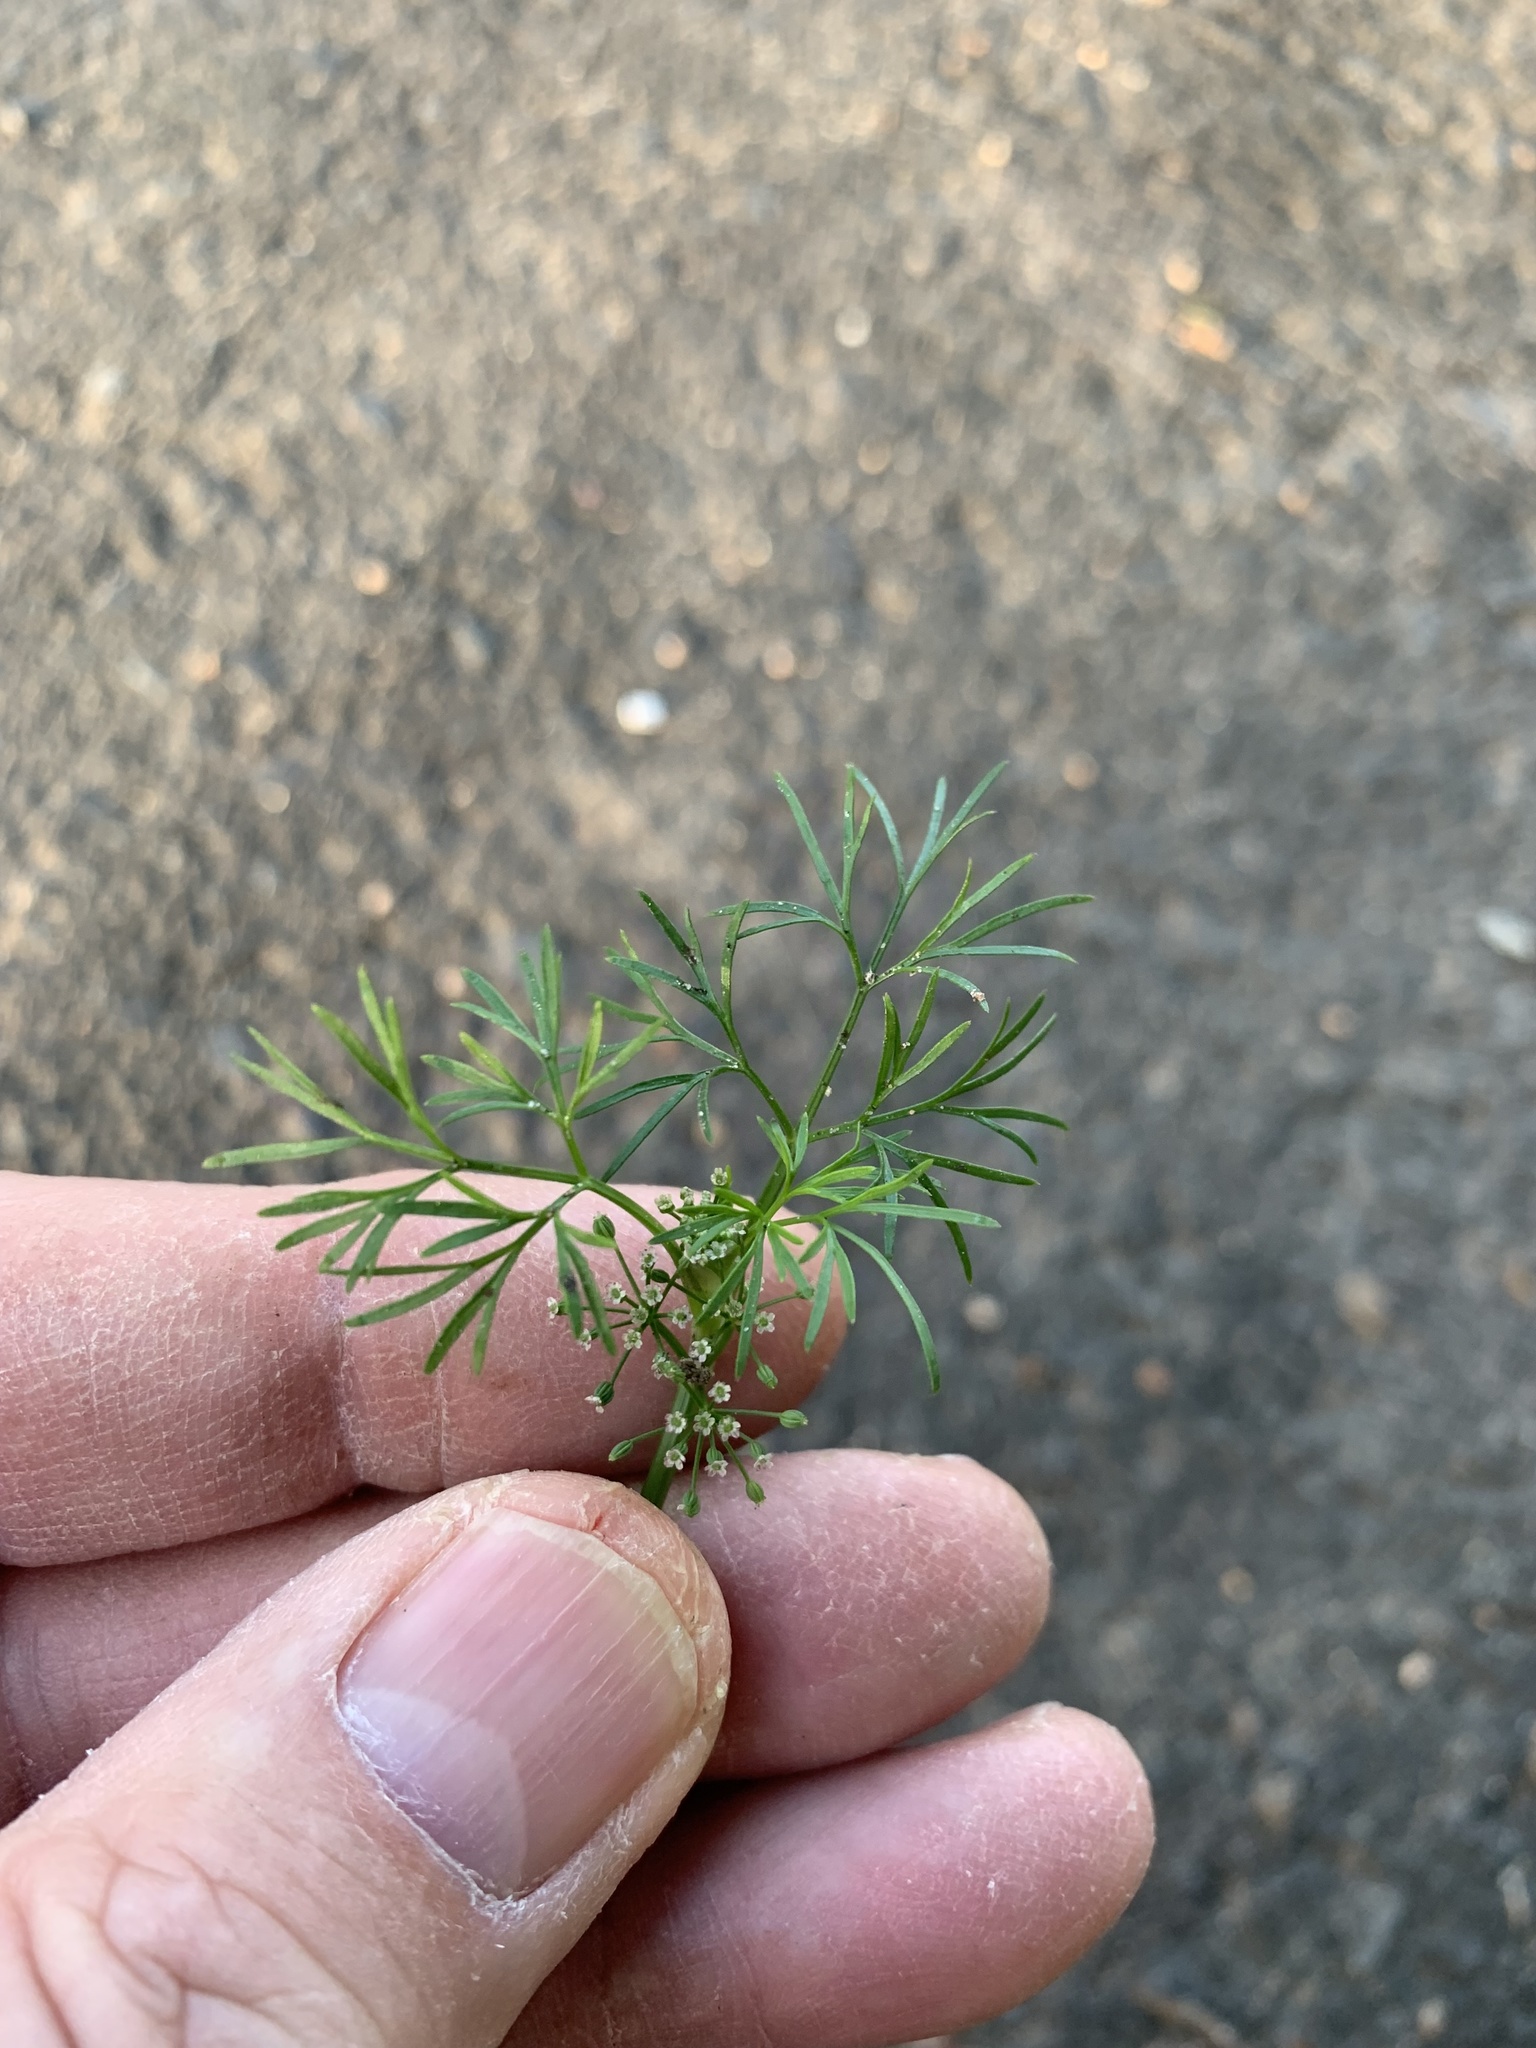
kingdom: Plantae
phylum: Tracheophyta
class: Magnoliopsida
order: Apiales
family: Apiaceae
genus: Cyclospermum
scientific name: Cyclospermum leptophyllum
